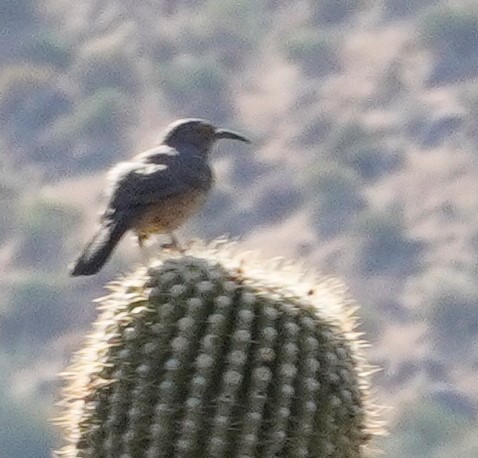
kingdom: Animalia
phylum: Chordata
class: Aves
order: Passeriformes
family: Mimidae
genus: Toxostoma
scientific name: Toxostoma curvirostre
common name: Curve-billed thrasher
